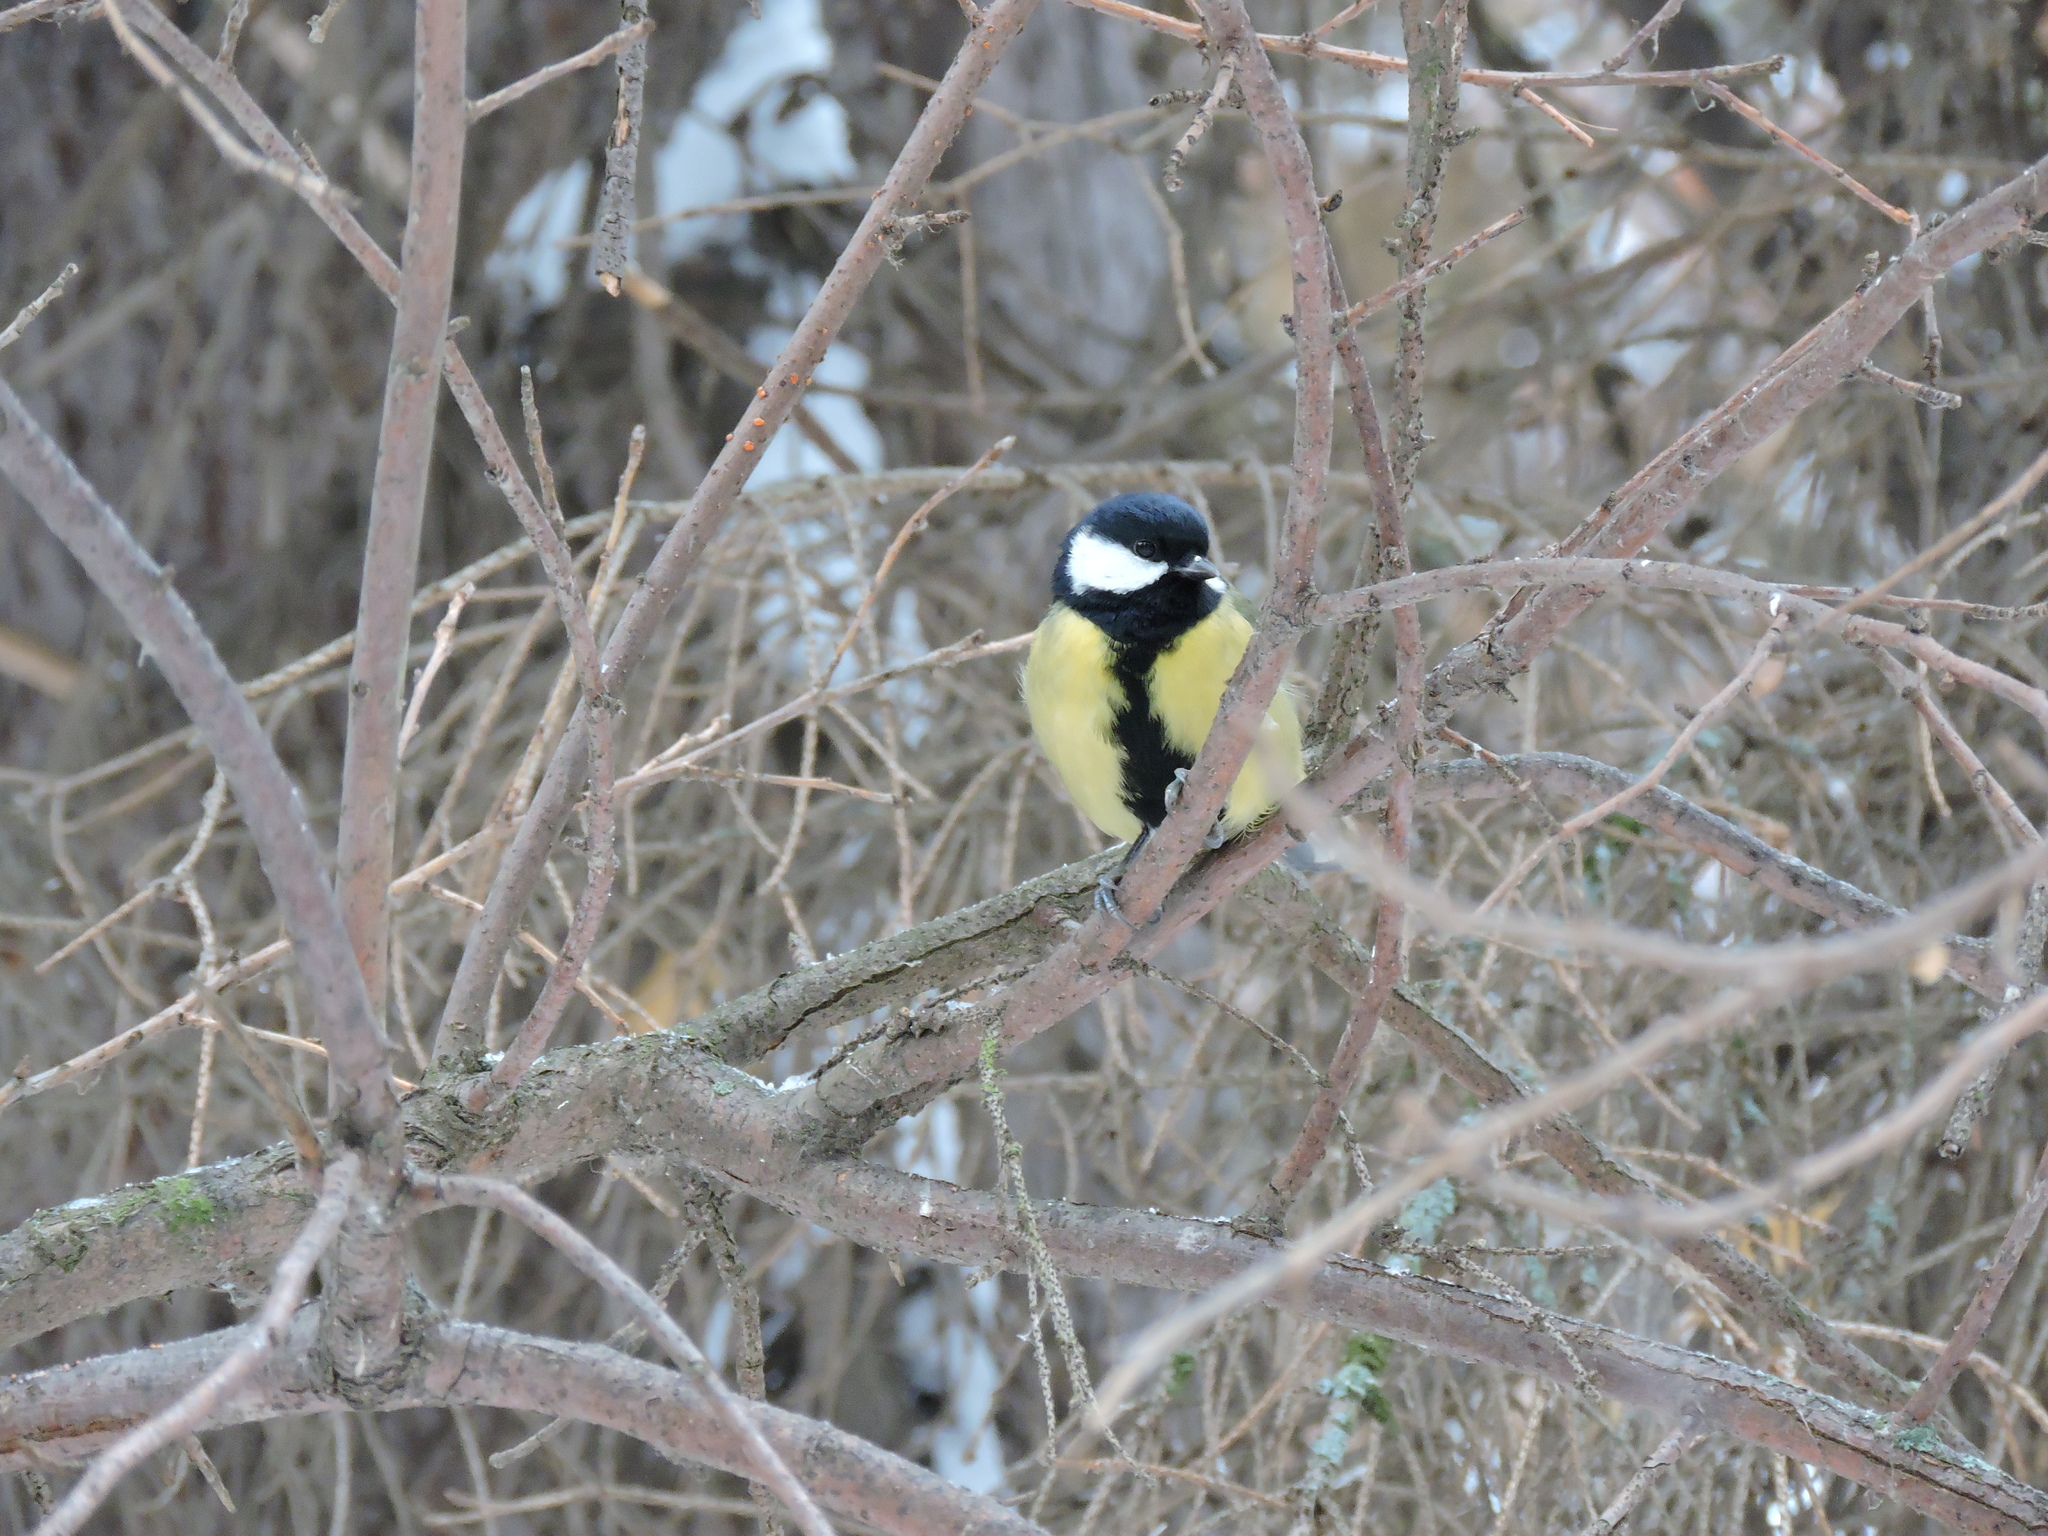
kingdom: Animalia
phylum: Chordata
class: Aves
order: Passeriformes
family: Paridae
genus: Parus
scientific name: Parus major
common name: Great tit
